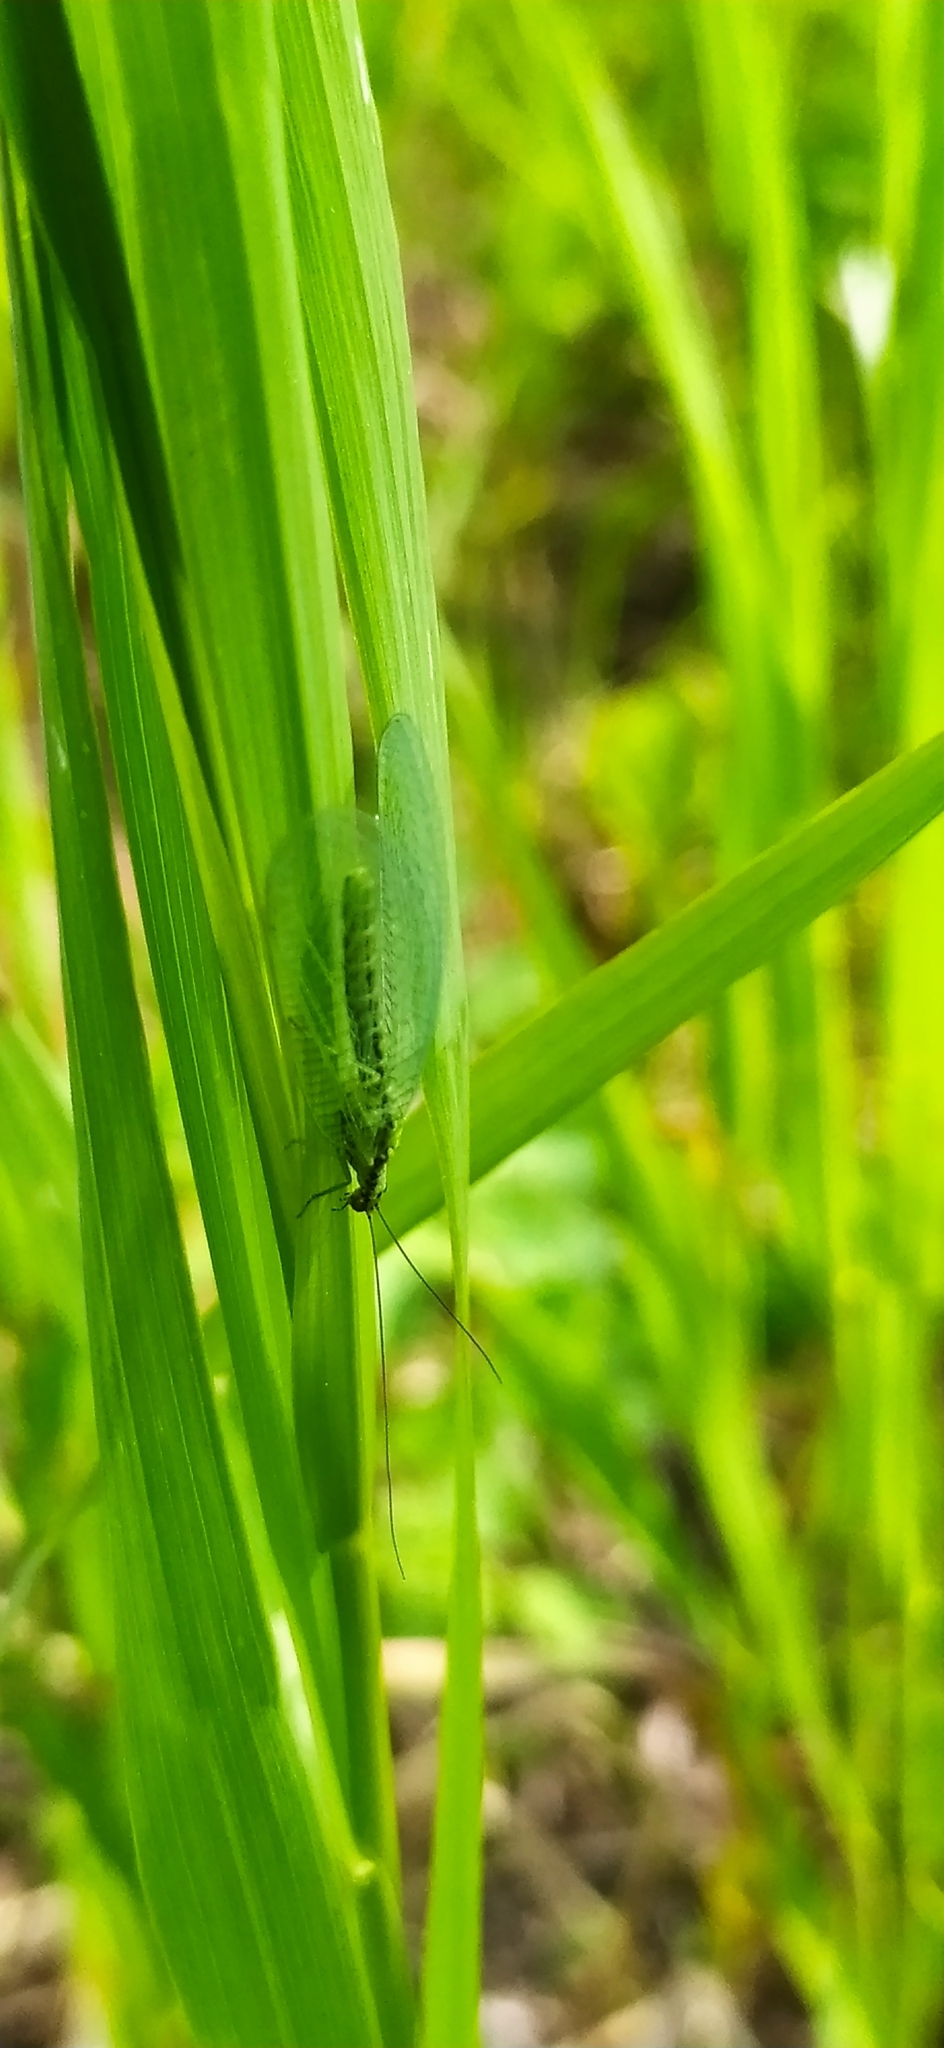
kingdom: Animalia
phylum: Arthropoda
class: Insecta
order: Neuroptera
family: Chrysopidae
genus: Chrysopa
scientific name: Chrysopa walkeri
